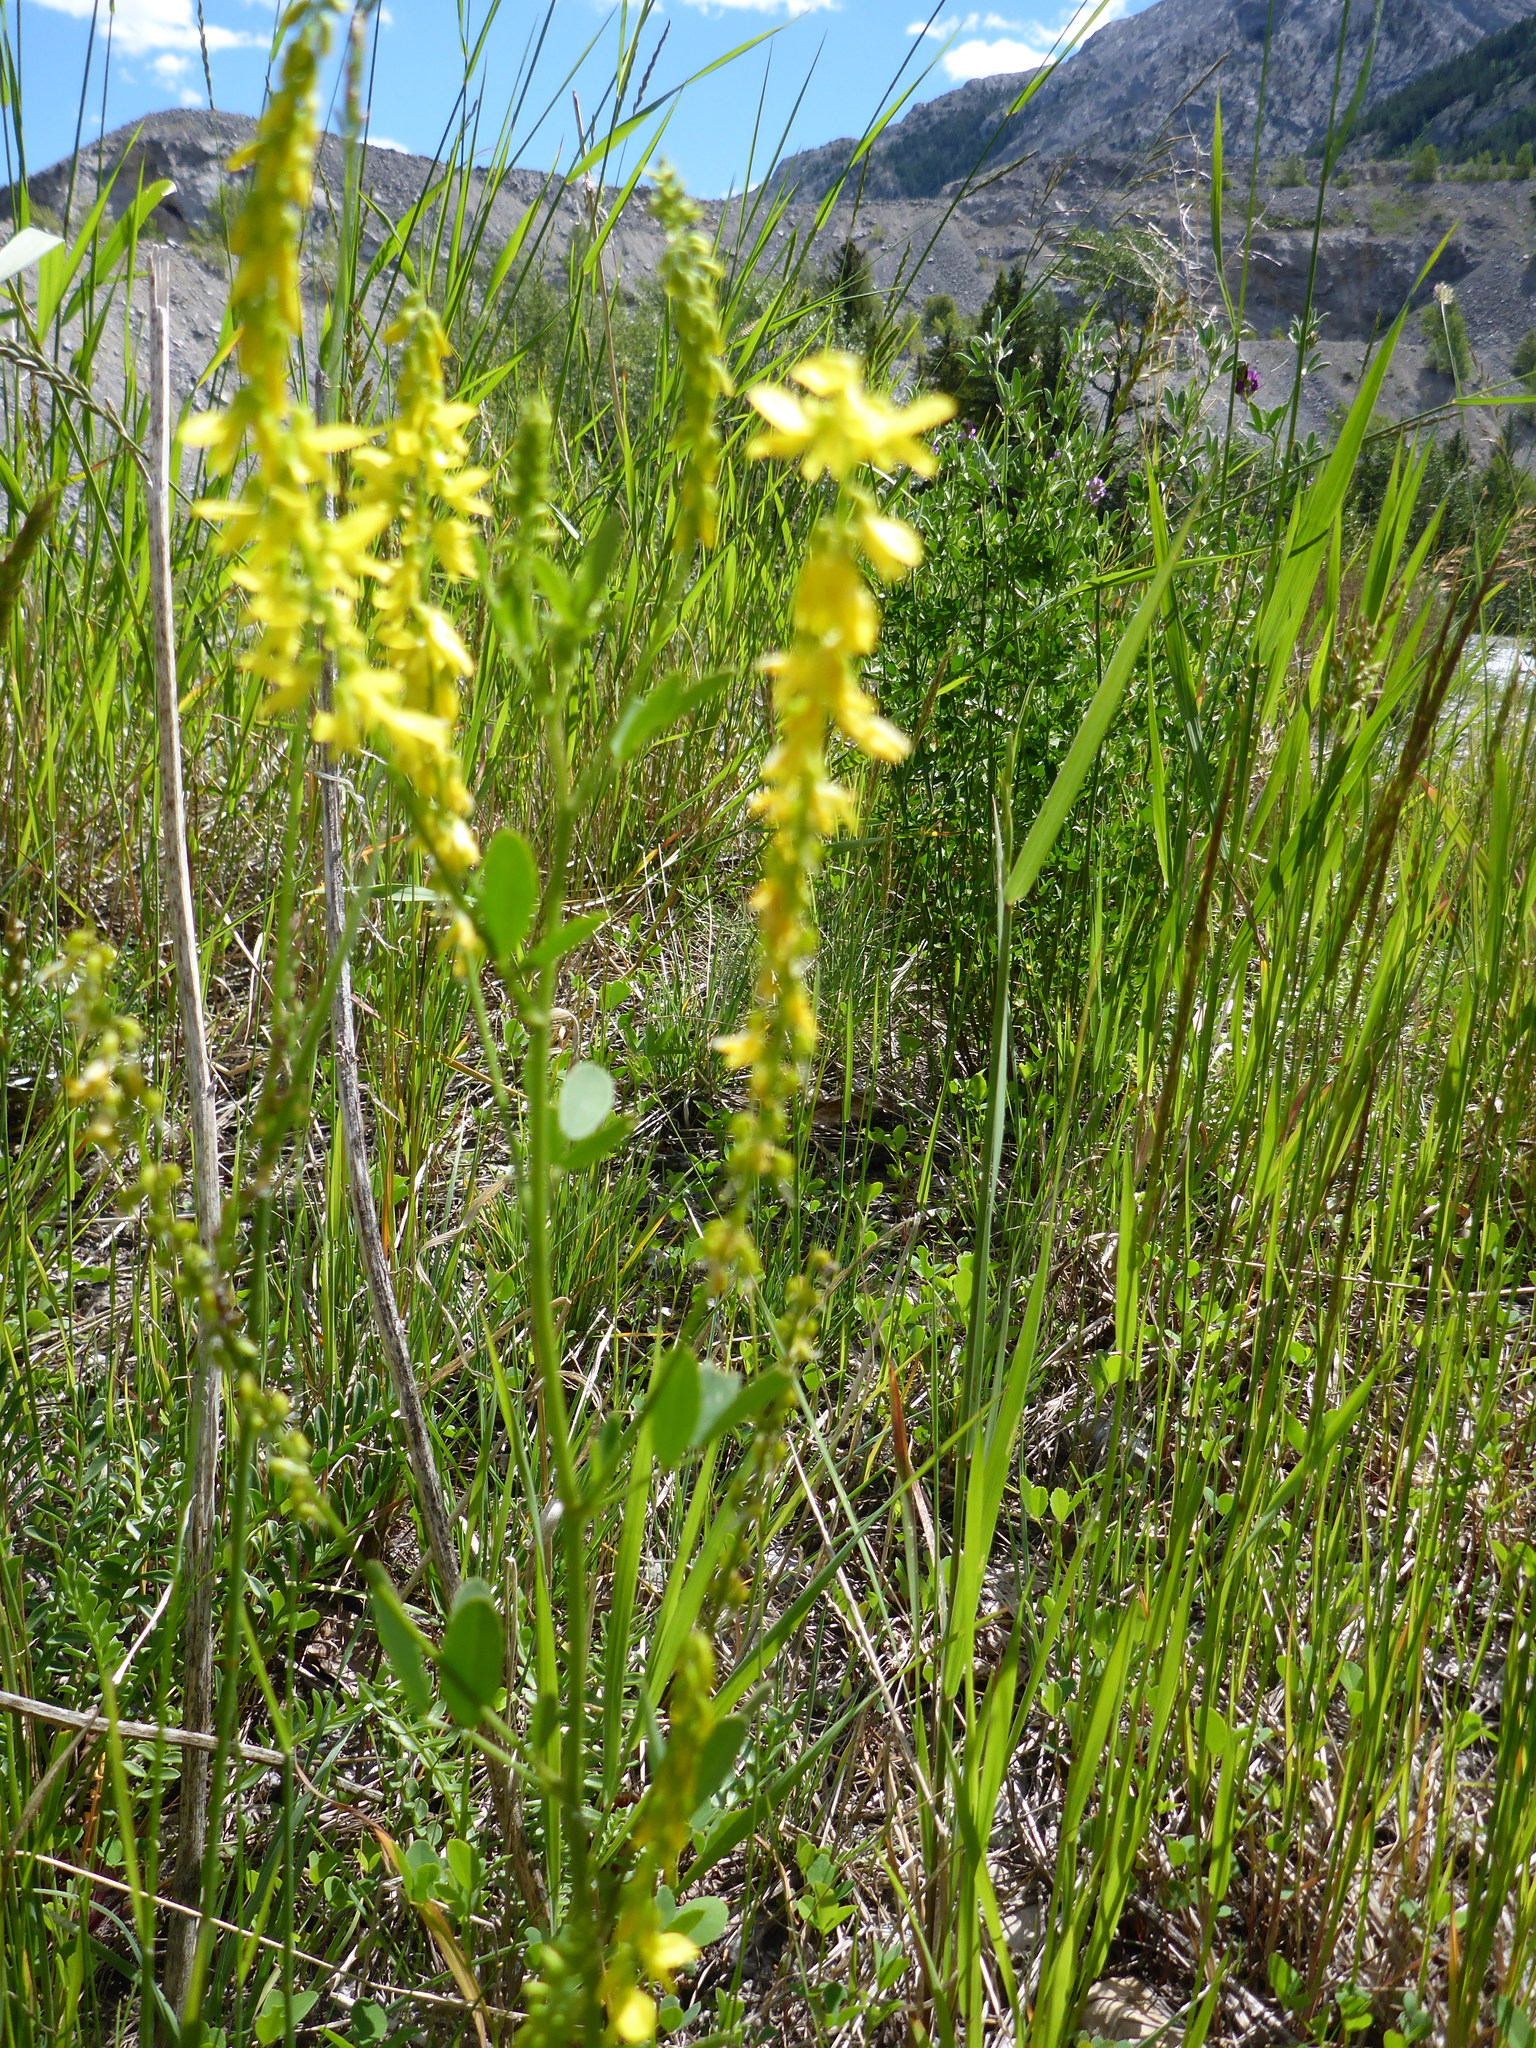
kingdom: Plantae
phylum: Tracheophyta
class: Magnoliopsida
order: Fabales
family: Fabaceae
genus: Melilotus
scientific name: Melilotus officinalis
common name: Sweetclover
